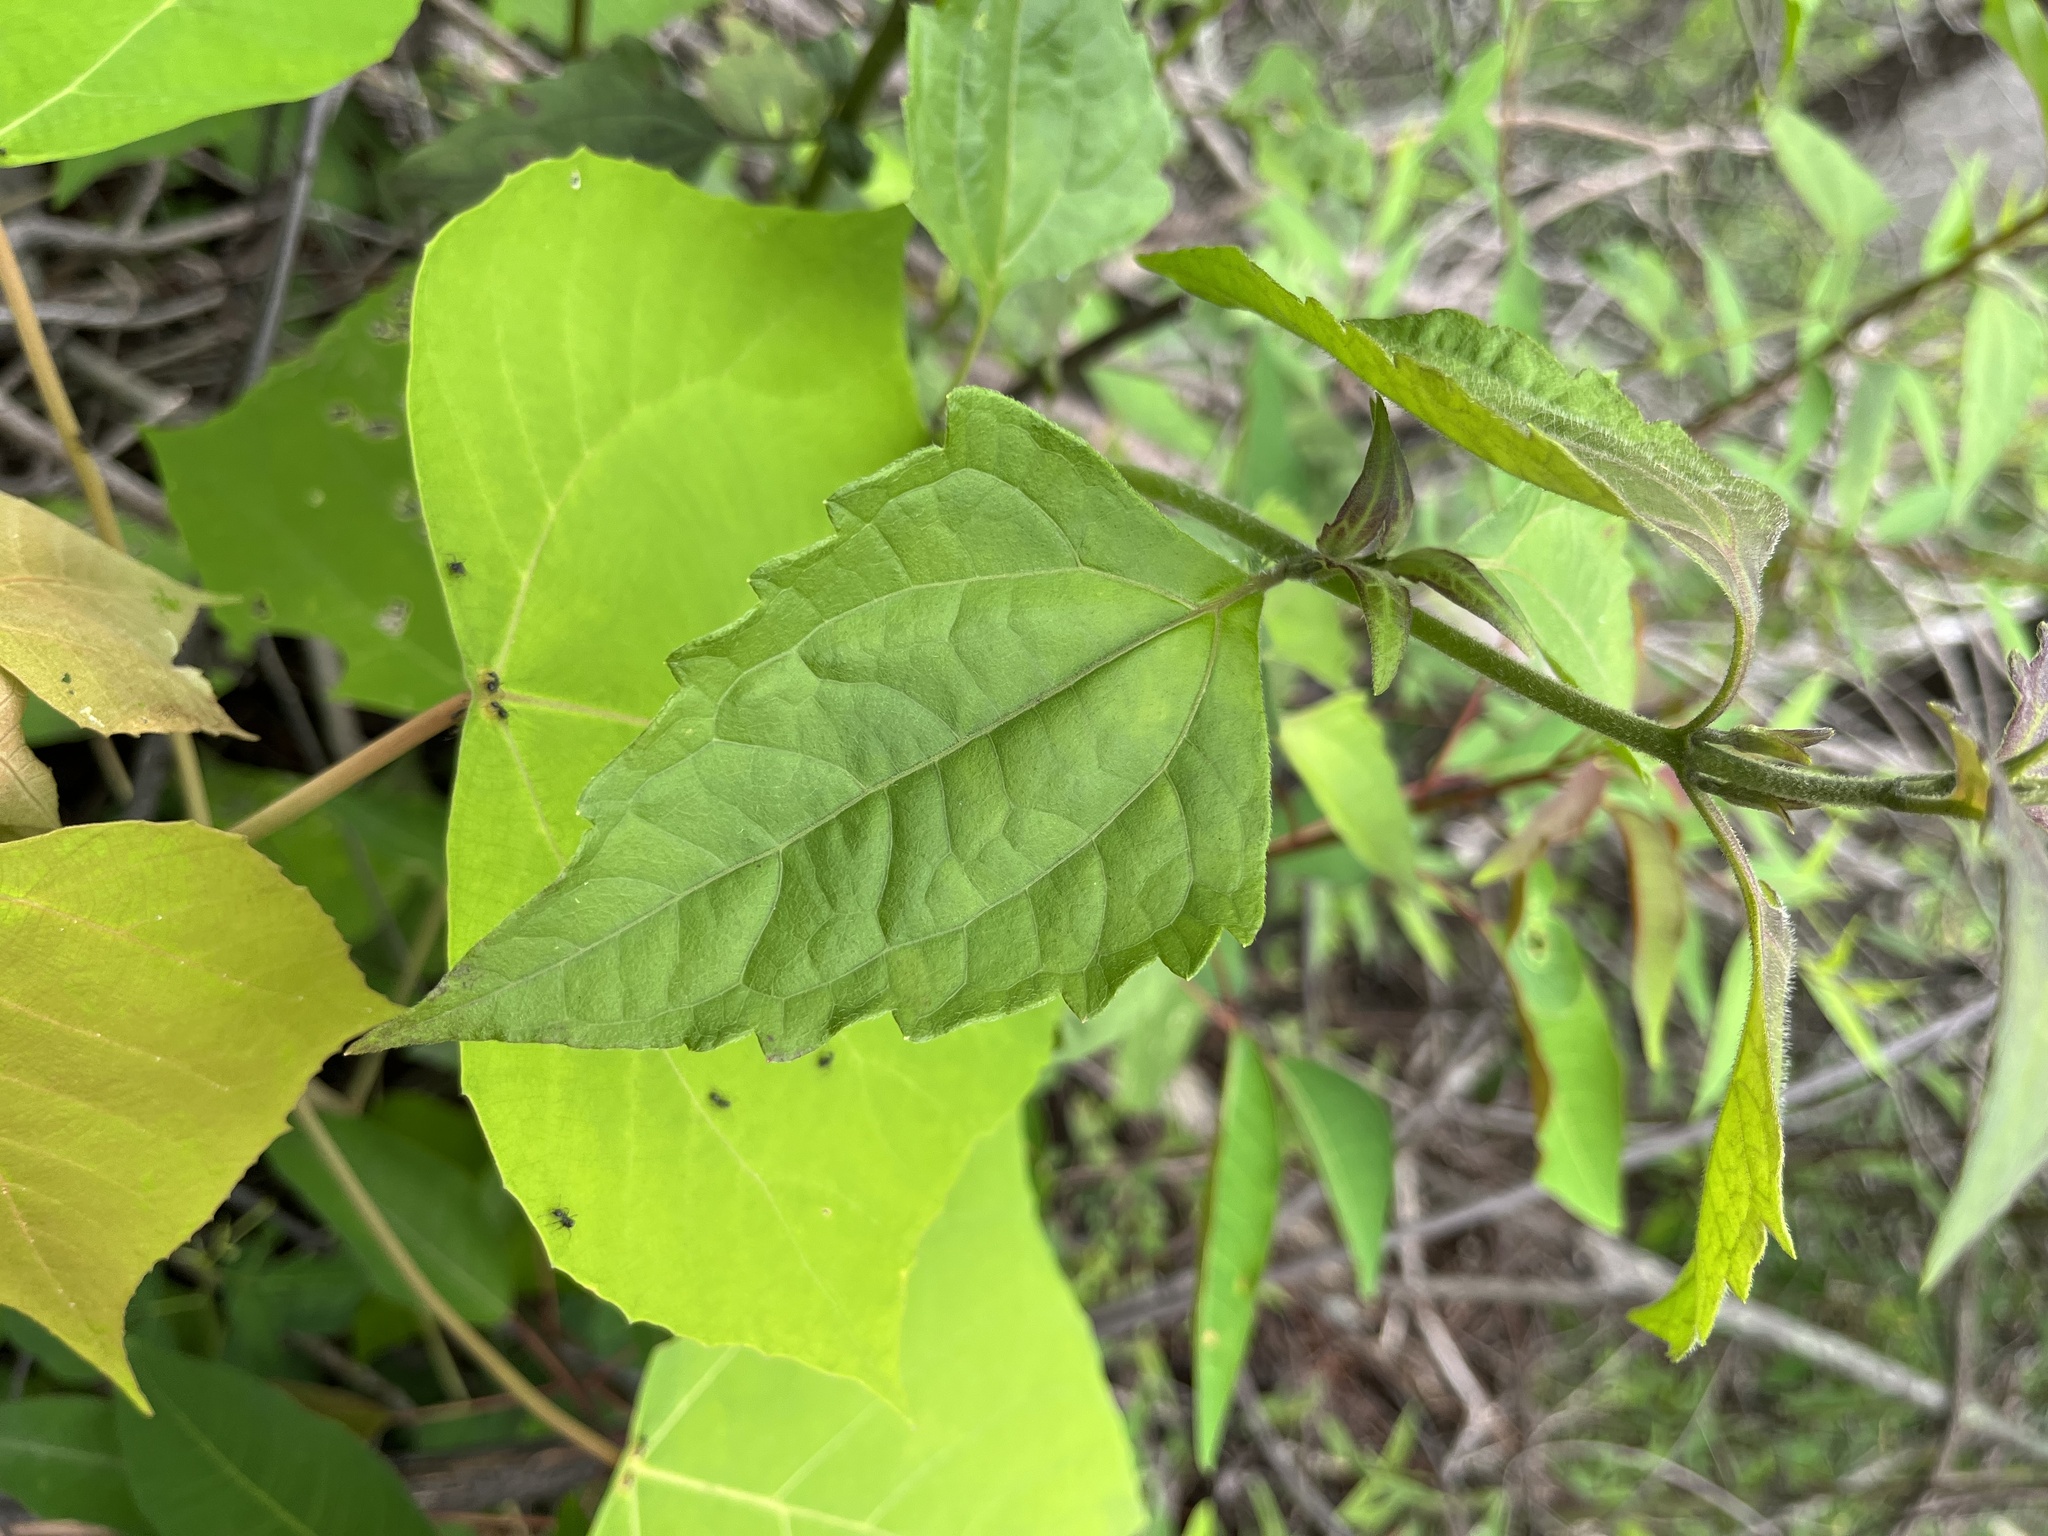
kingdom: Plantae
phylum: Tracheophyta
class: Magnoliopsida
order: Asterales
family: Asteraceae
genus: Chromolaena
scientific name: Chromolaena odorata
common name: Siamweed
